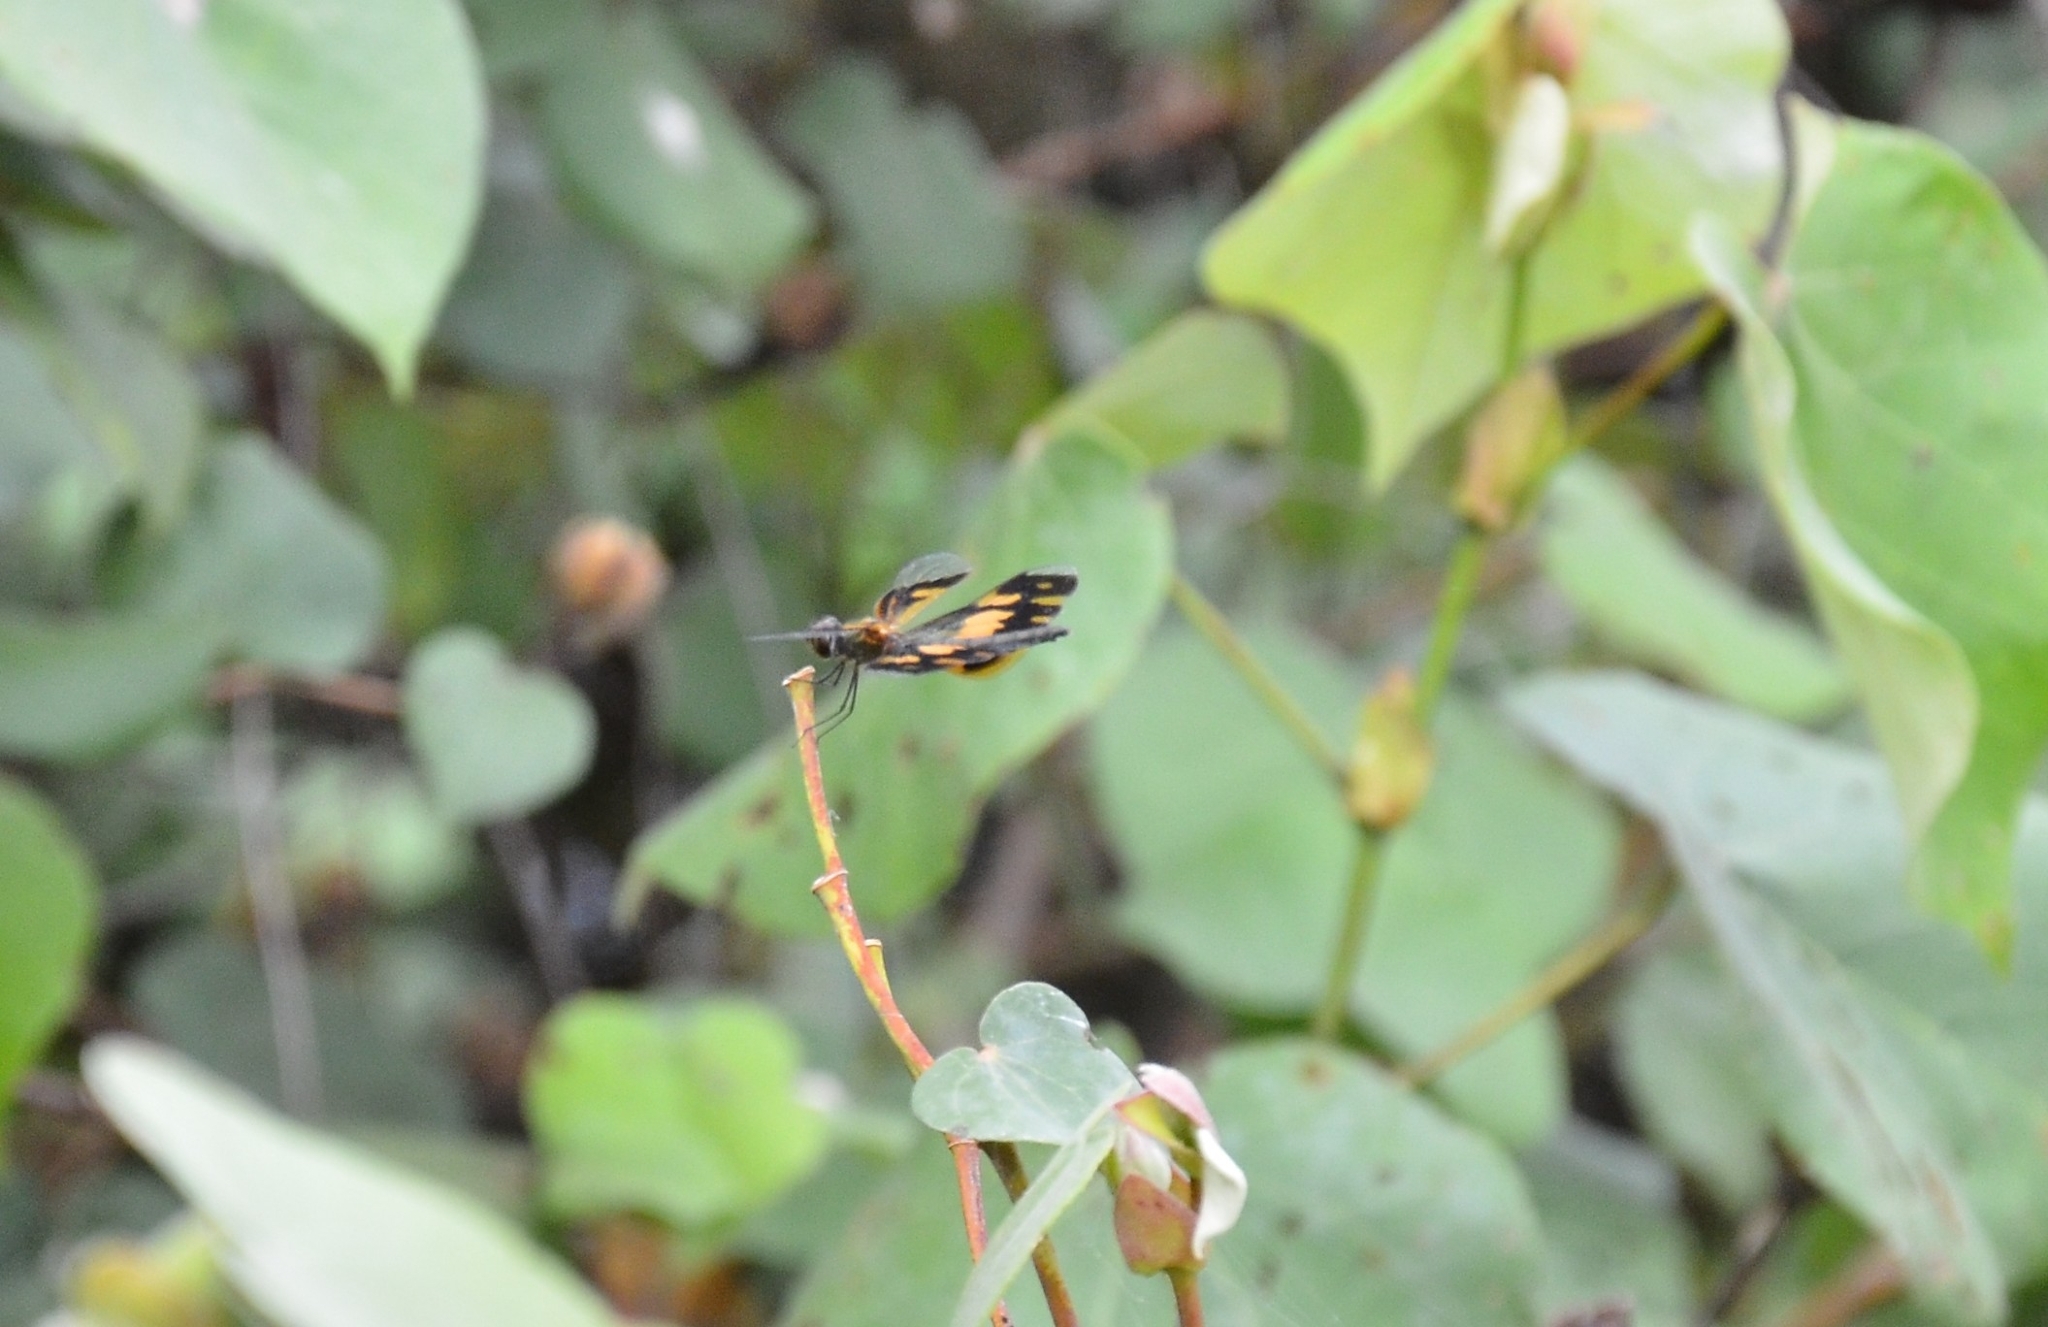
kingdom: Animalia
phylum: Arthropoda
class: Insecta
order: Odonata
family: Libellulidae
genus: Rhyothemis
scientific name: Rhyothemis variegata
